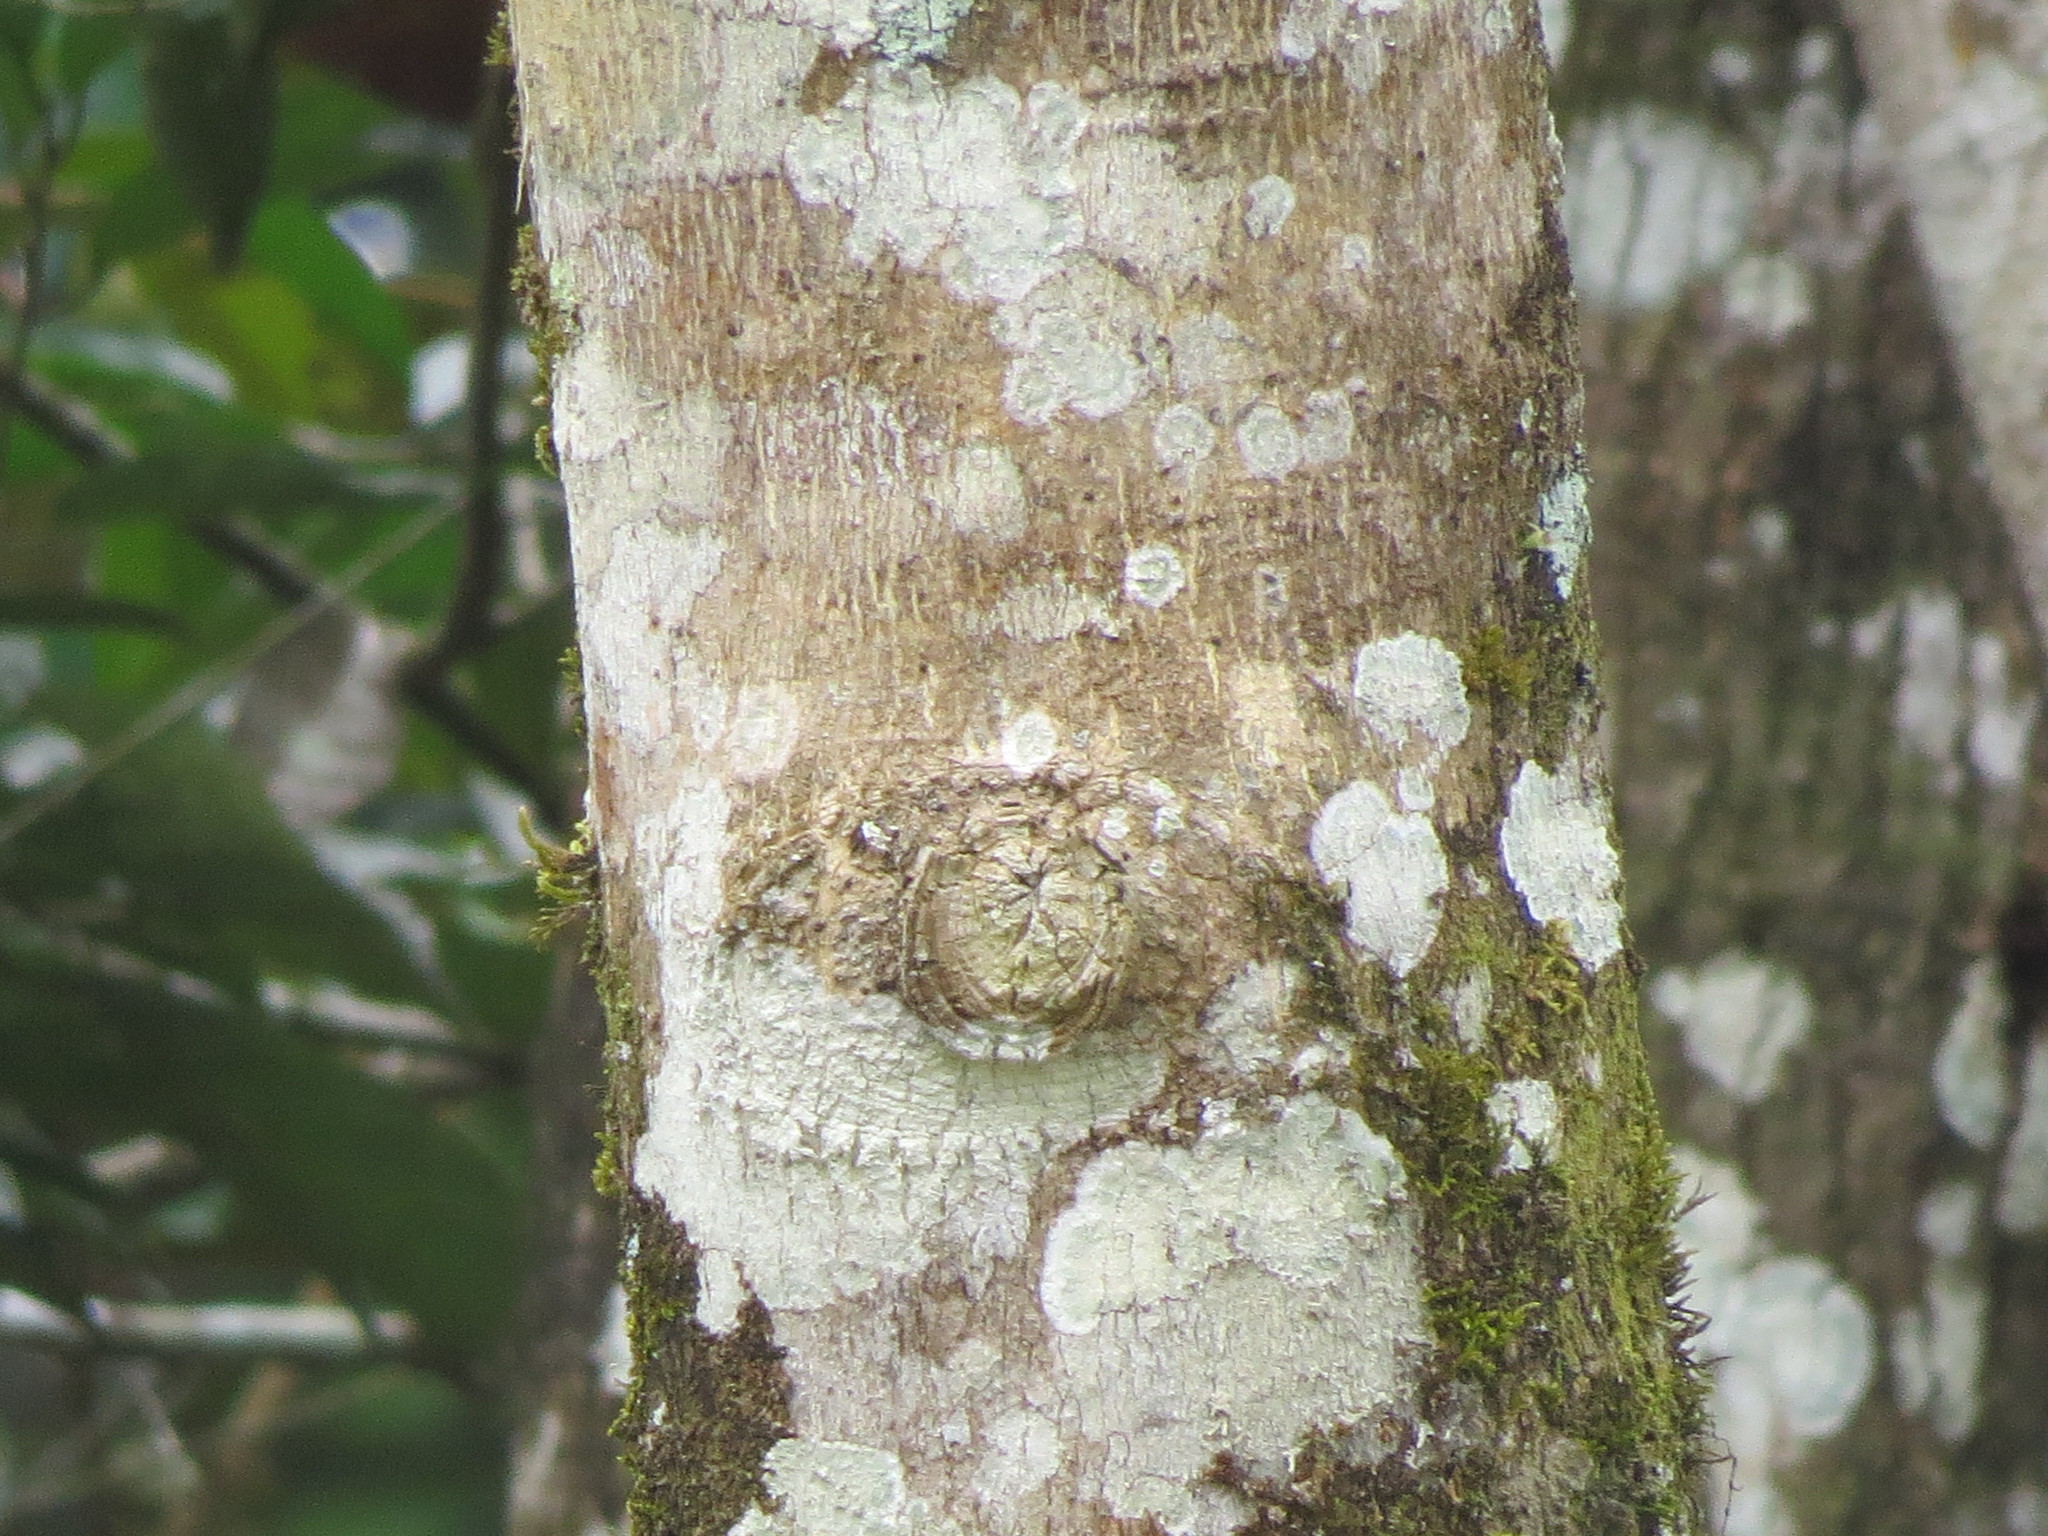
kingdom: Plantae
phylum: Tracheophyta
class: Magnoliopsida
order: Lamiales
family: Lamiaceae
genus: Vitex
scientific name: Vitex gaumeri
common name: Fiddlewood
